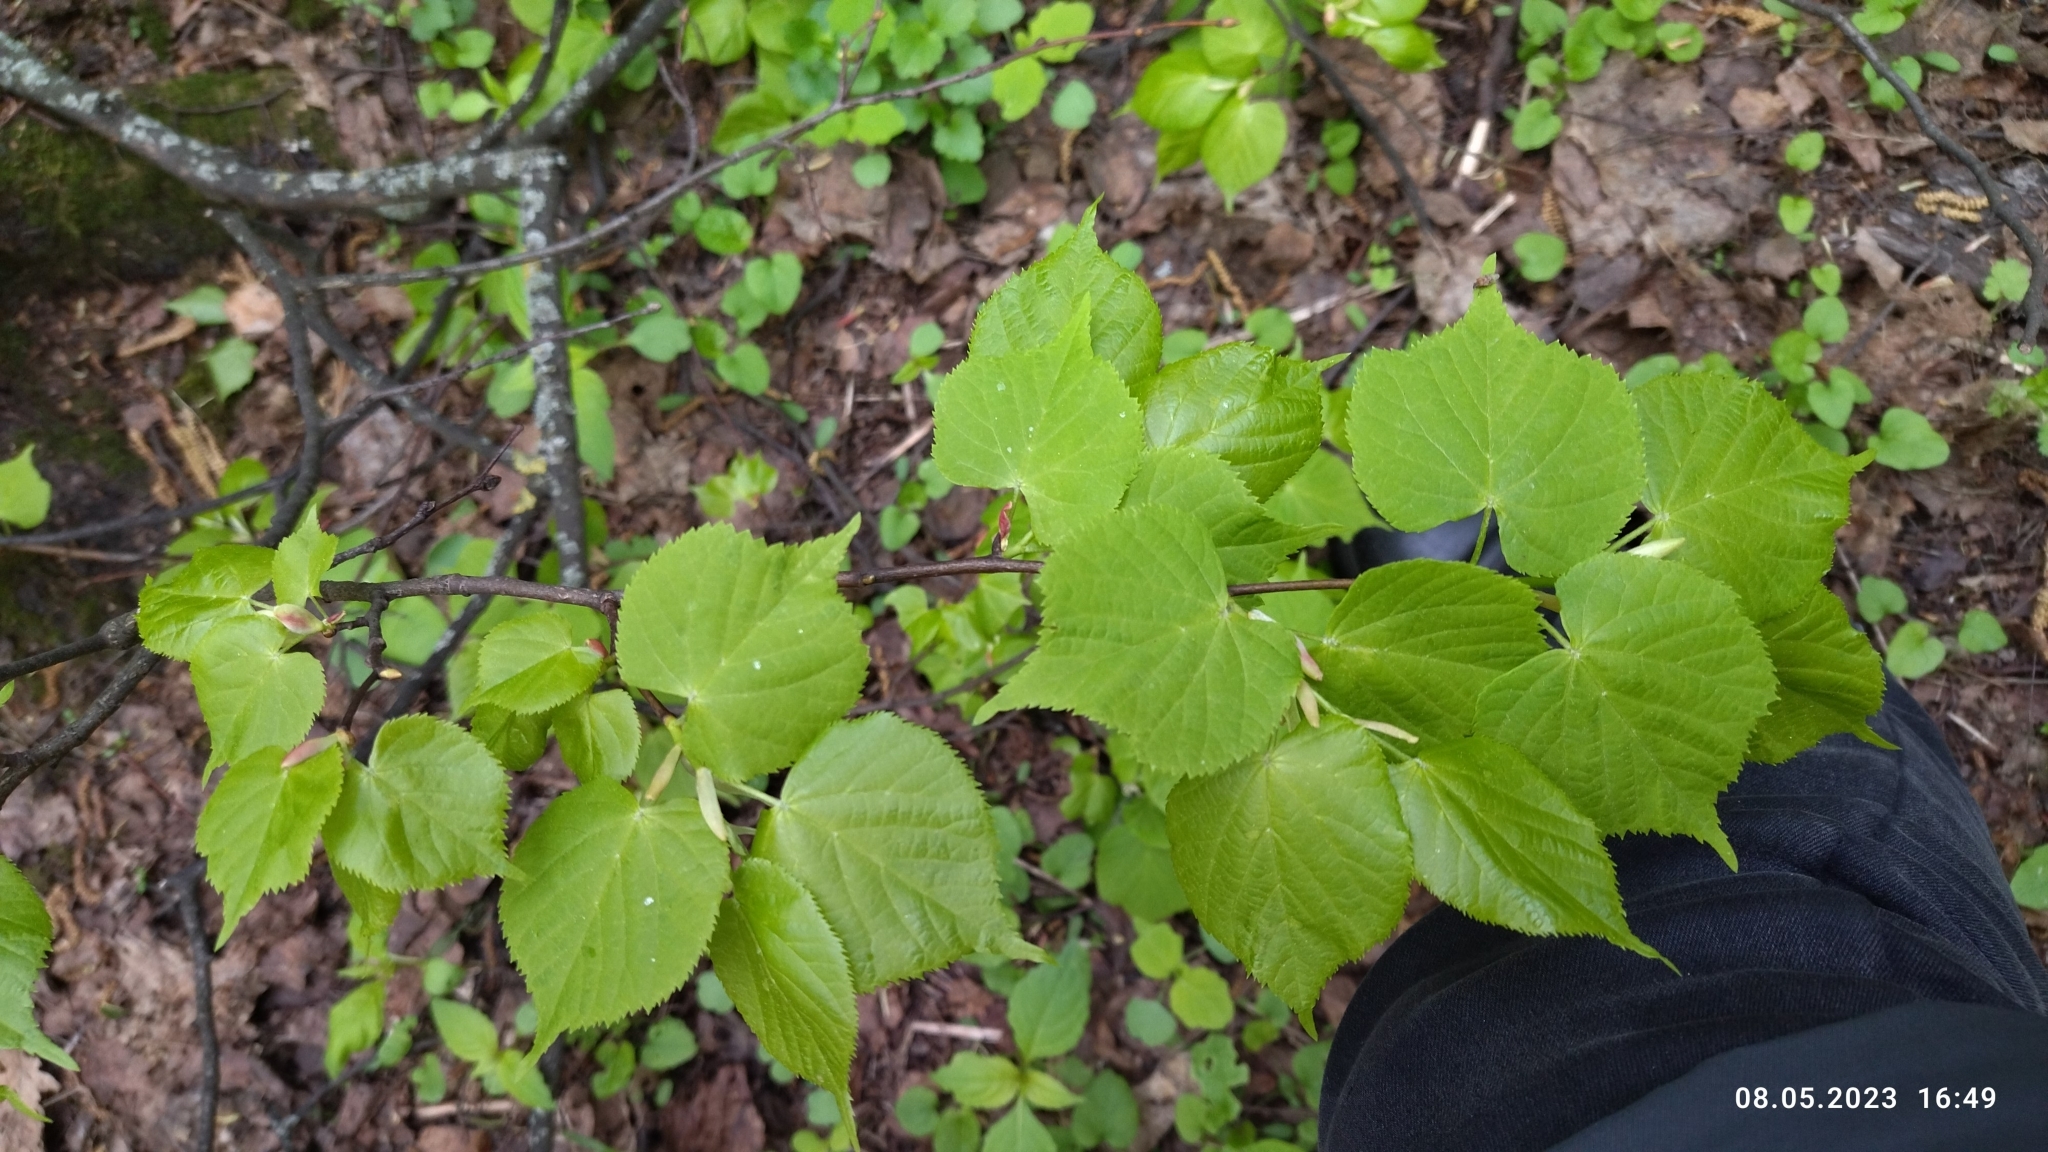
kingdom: Plantae
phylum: Tracheophyta
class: Magnoliopsida
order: Malvales
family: Malvaceae
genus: Tilia
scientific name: Tilia cordata
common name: Small-leaved lime
